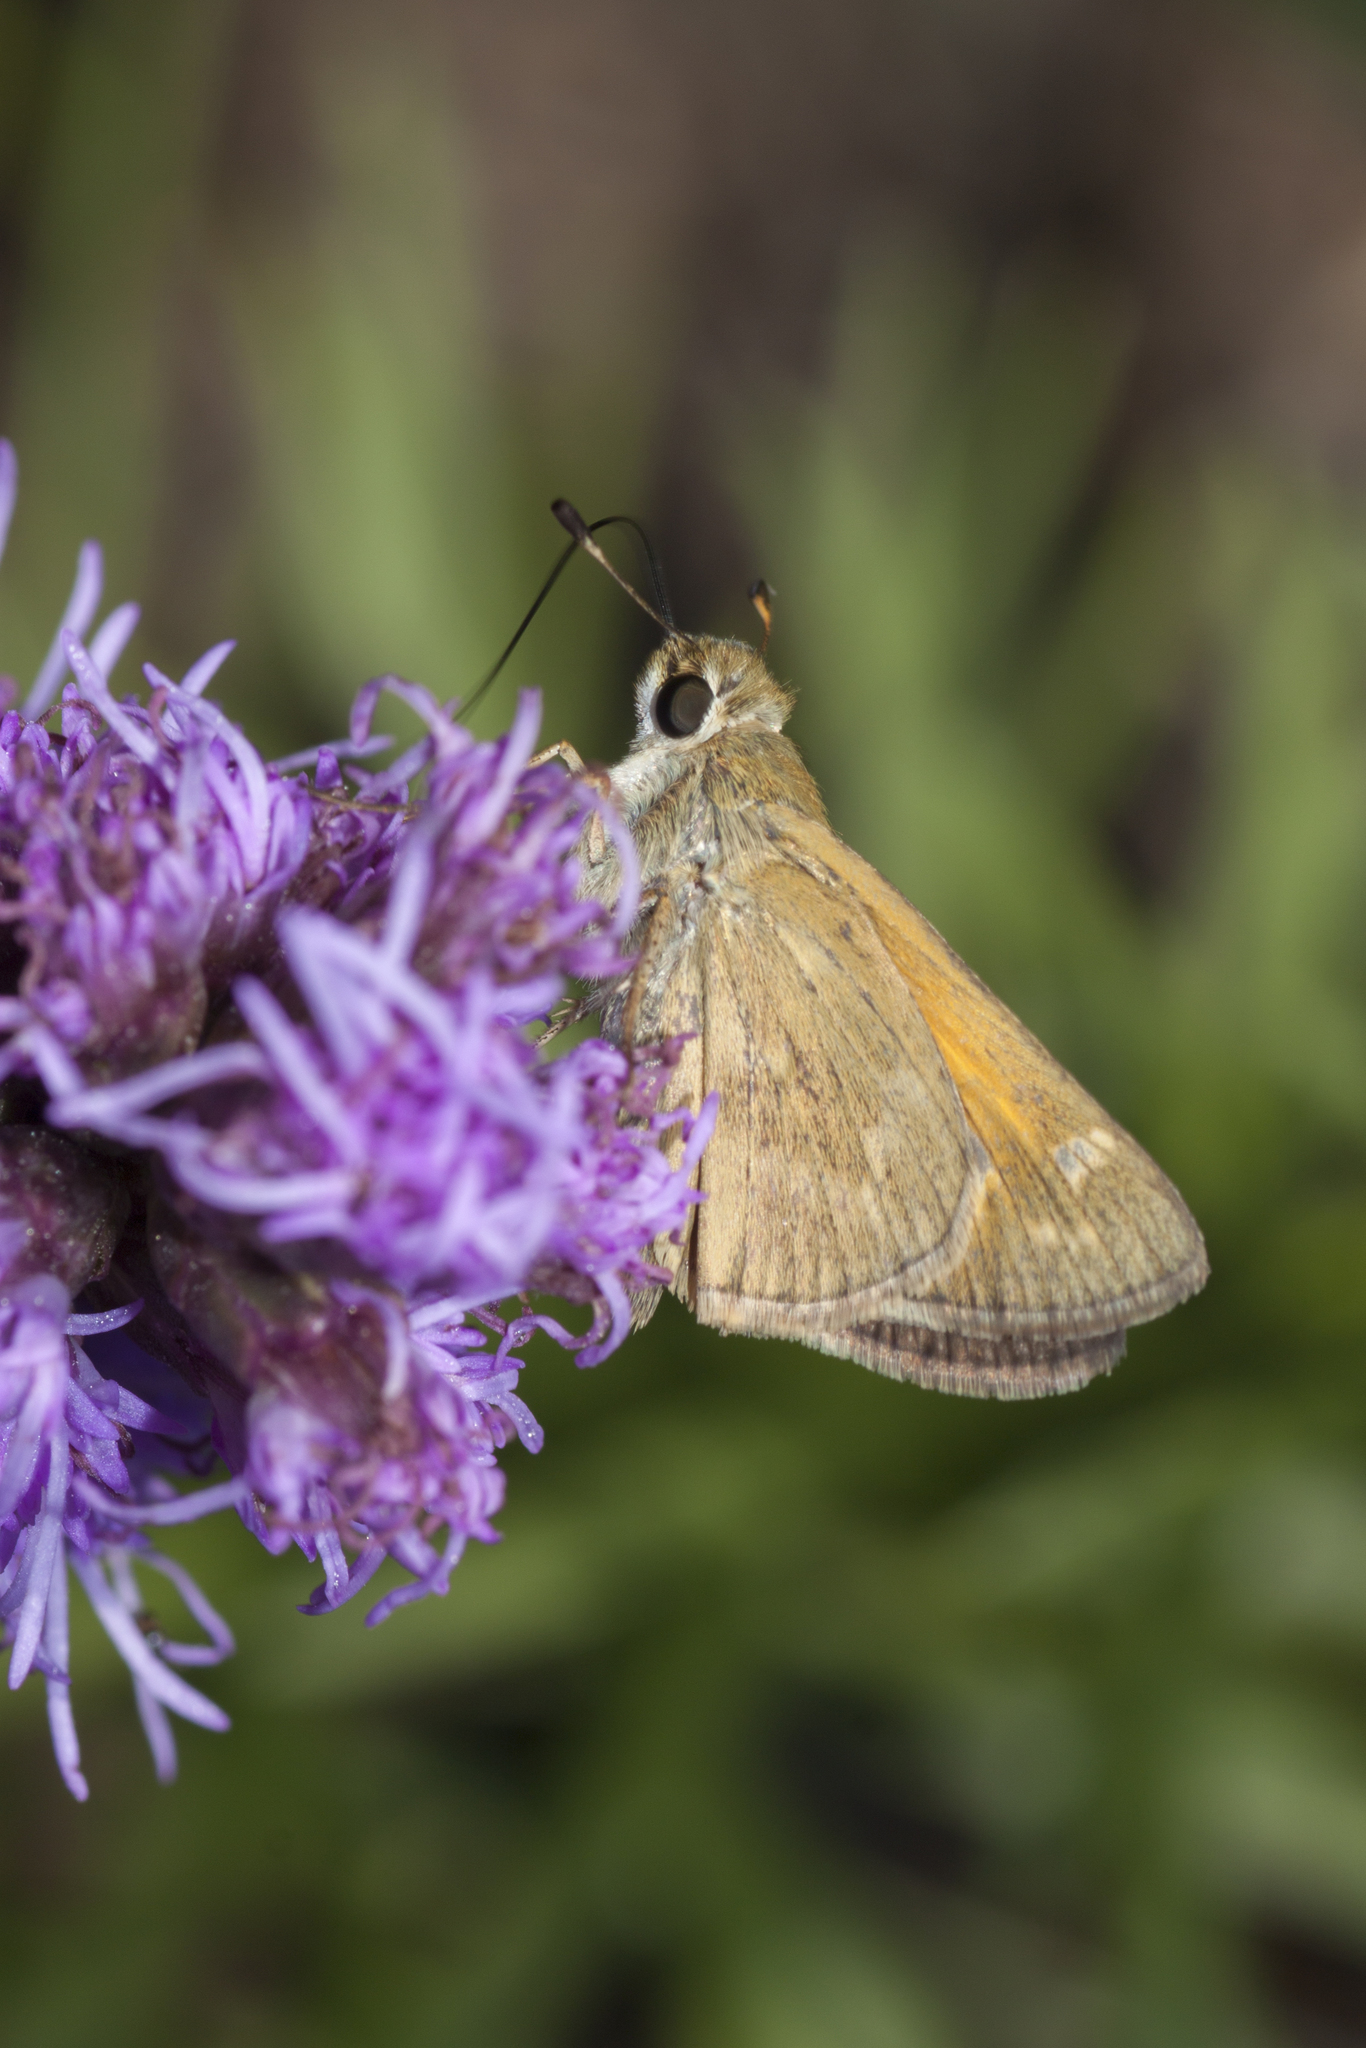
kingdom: Animalia
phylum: Arthropoda
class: Insecta
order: Lepidoptera
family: Hesperiidae
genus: Atalopedes
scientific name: Atalopedes
